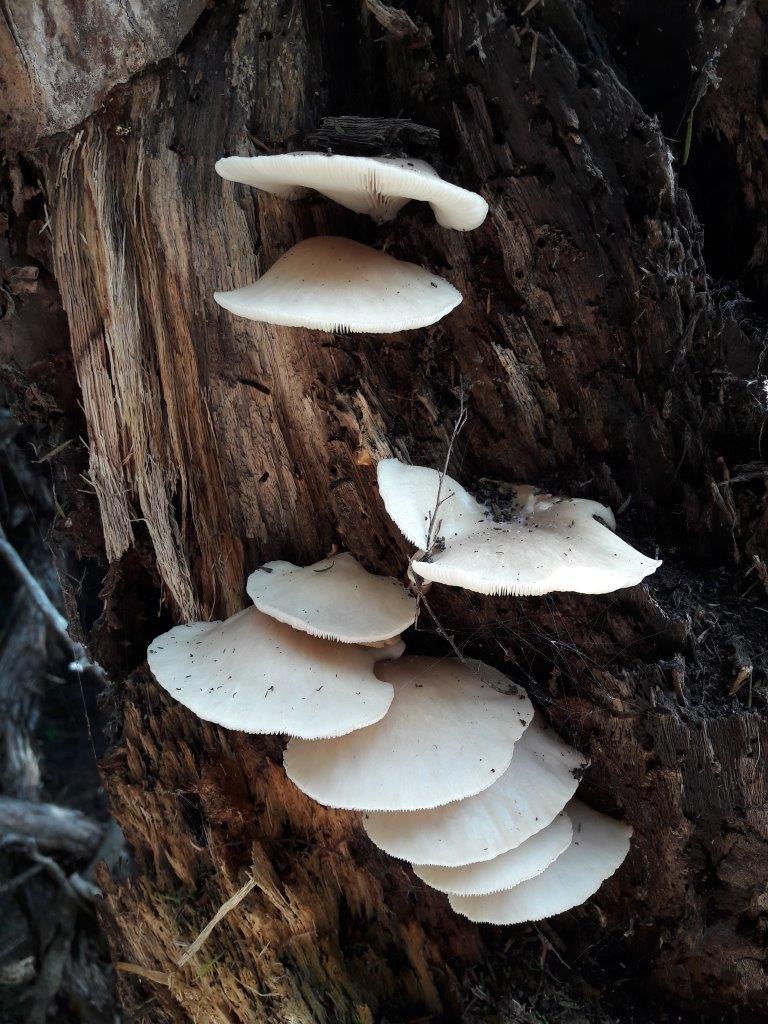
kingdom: Fungi
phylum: Basidiomycota
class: Agaricomycetes
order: Agaricales
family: Pleurotaceae
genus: Pleurotus
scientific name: Pleurotus pulmonarius
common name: Pale oyster
